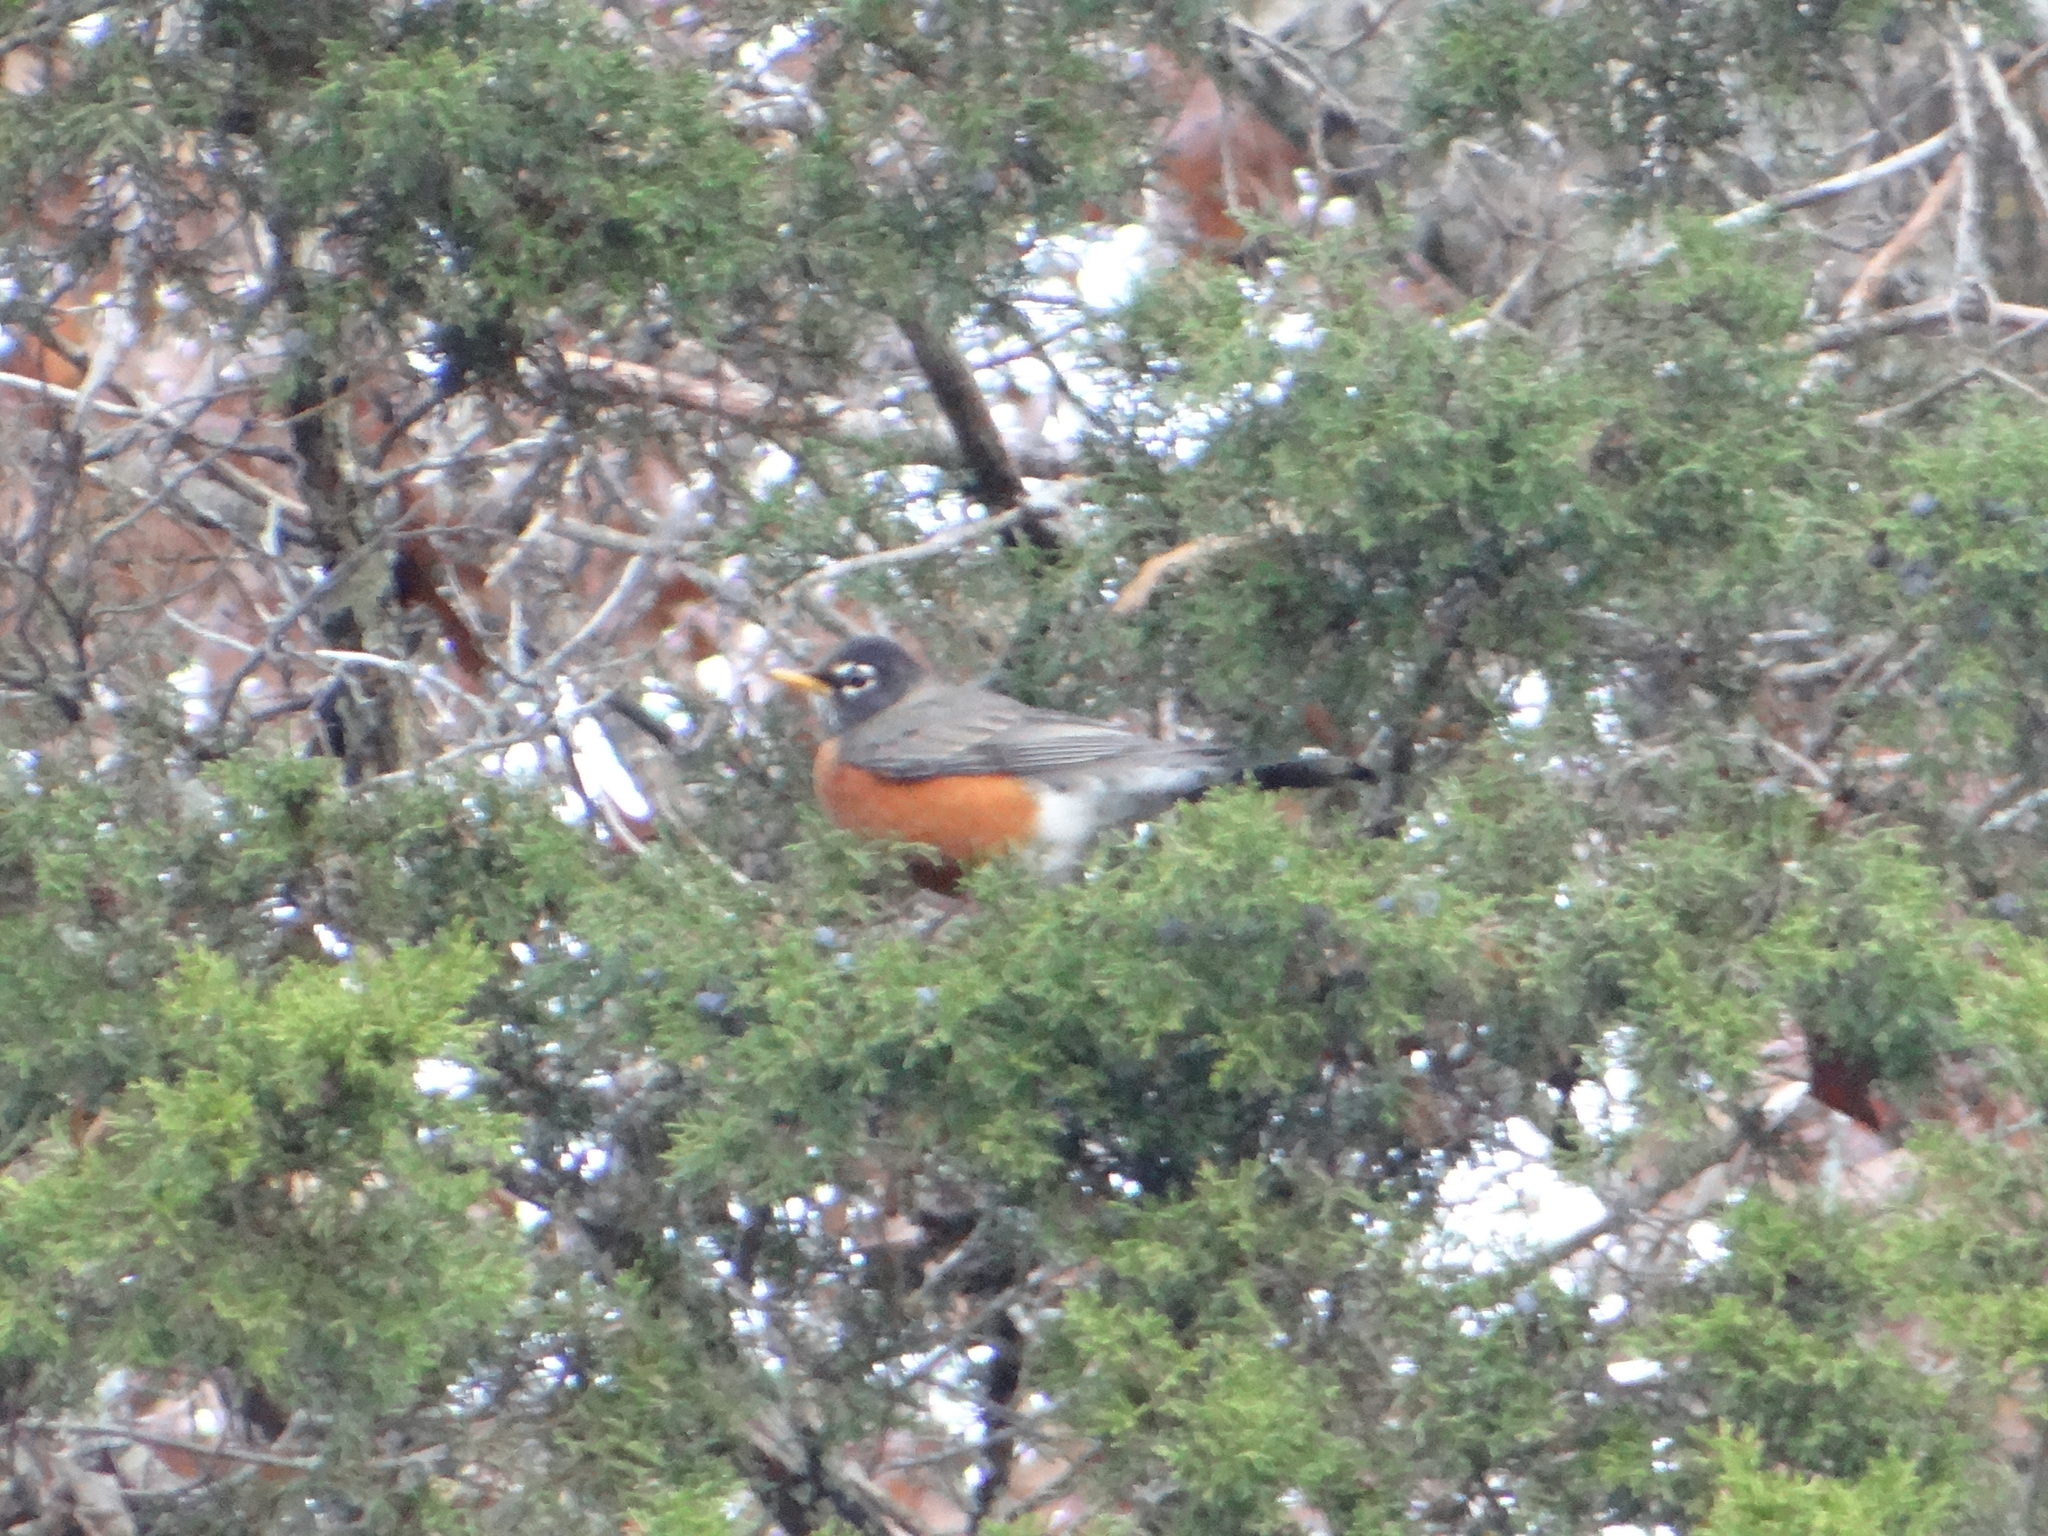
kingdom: Animalia
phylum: Chordata
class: Aves
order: Passeriformes
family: Turdidae
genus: Turdus
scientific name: Turdus migratorius
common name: American robin
